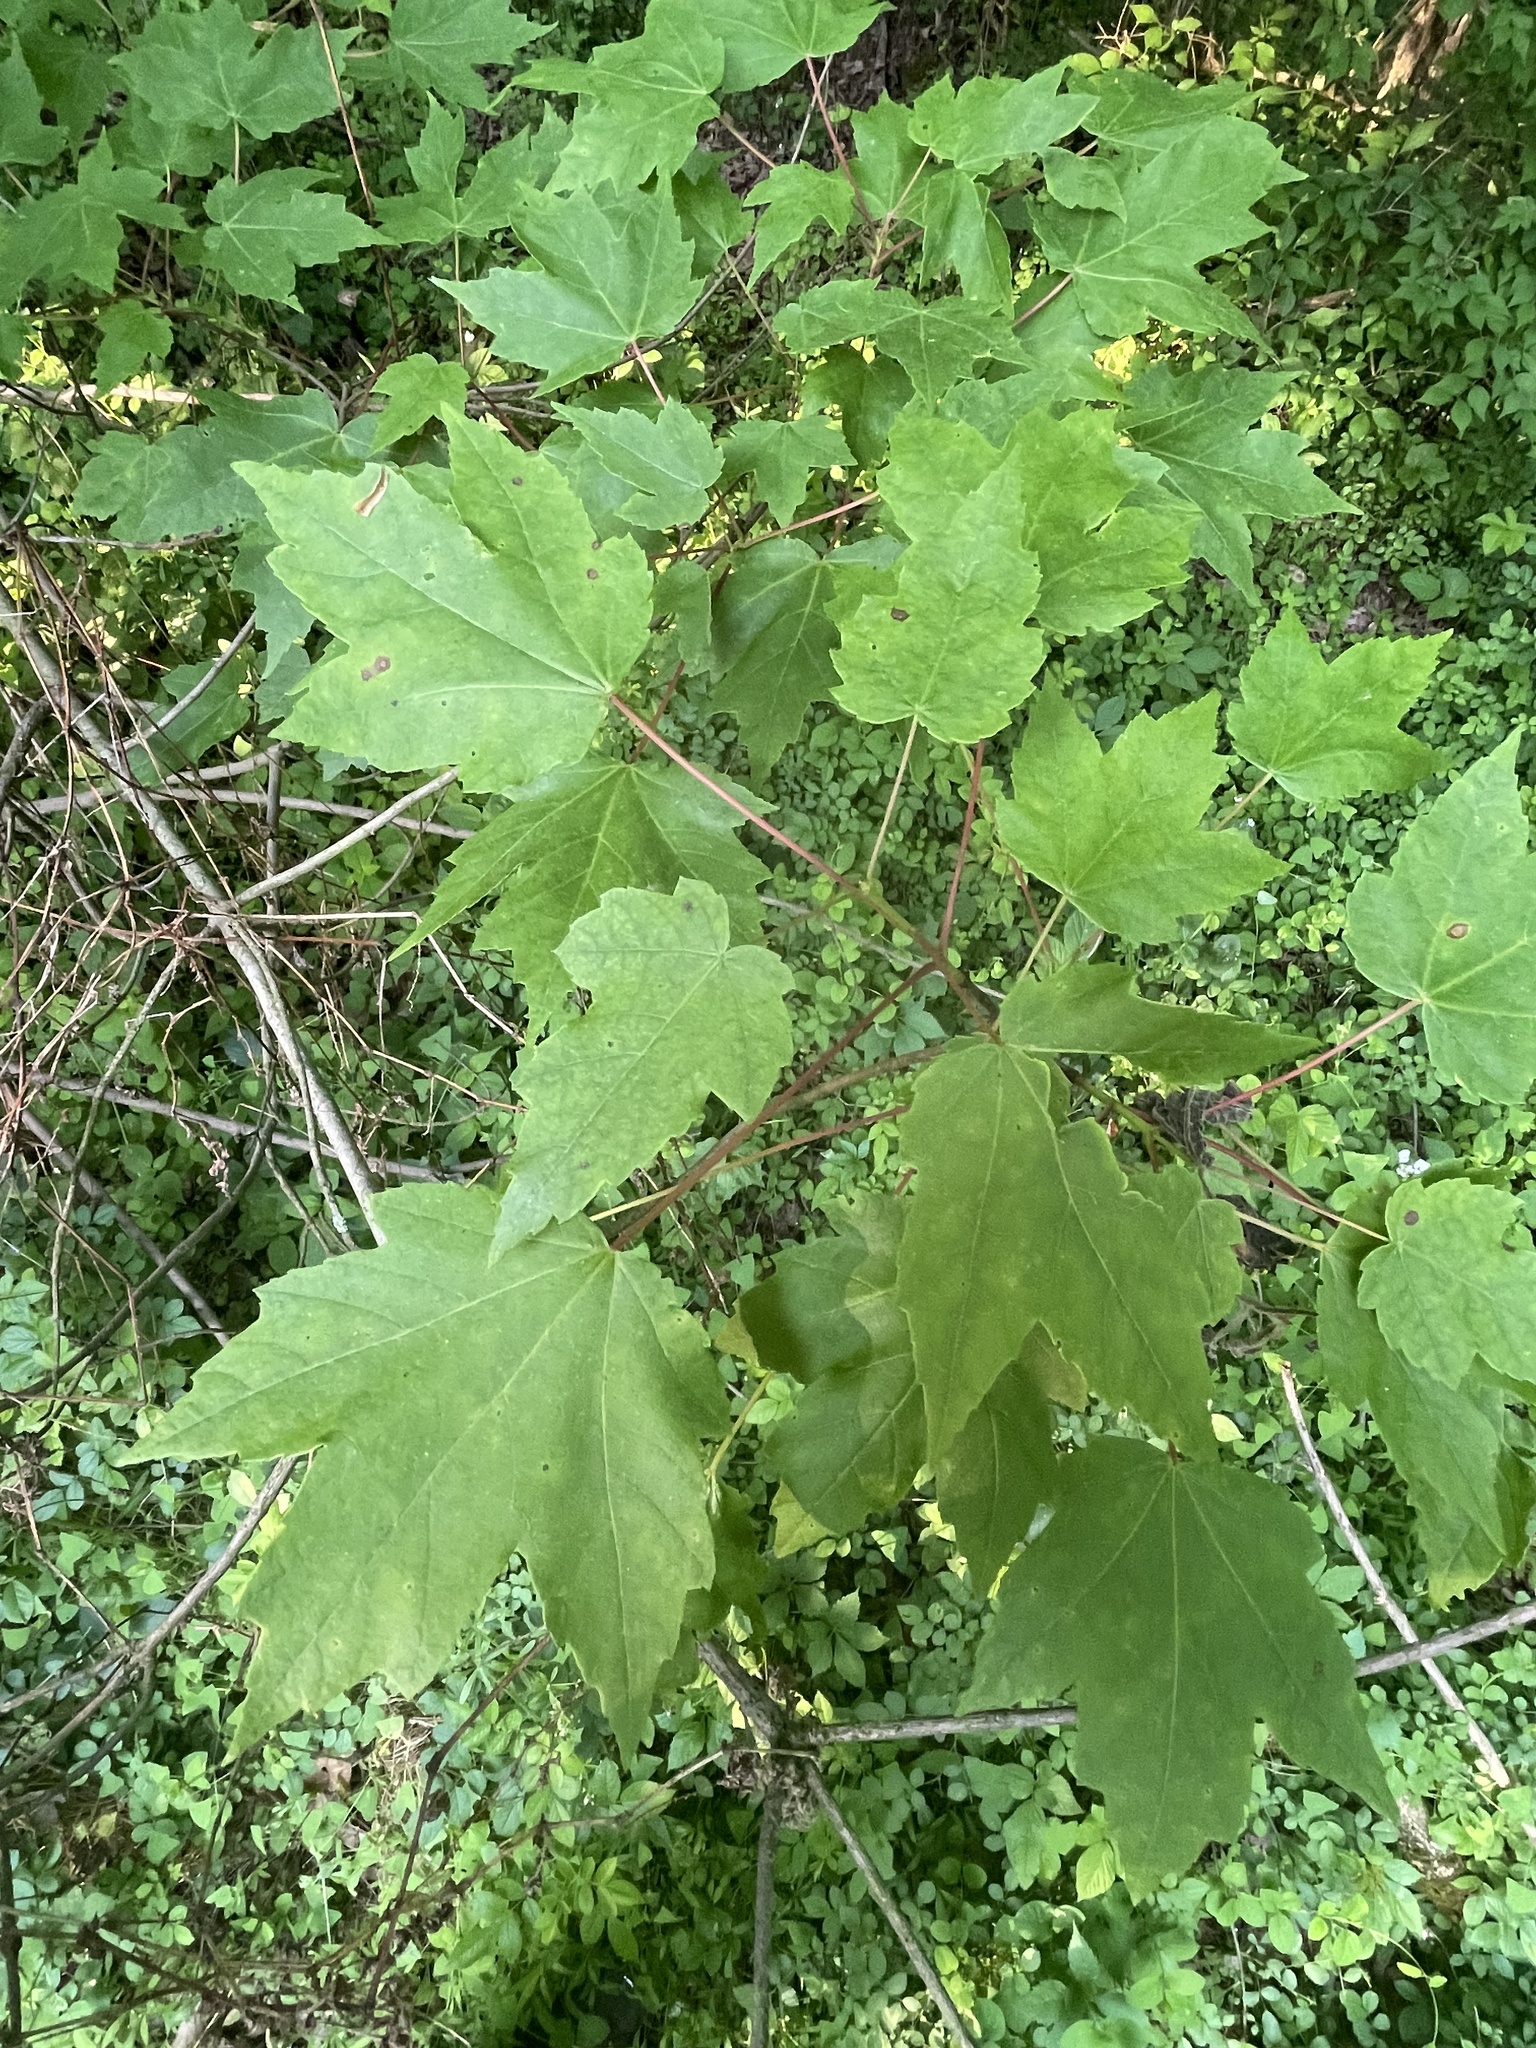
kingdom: Plantae
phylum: Tracheophyta
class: Magnoliopsida
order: Sapindales
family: Sapindaceae
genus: Acer
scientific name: Acer rubrum
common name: Red maple
